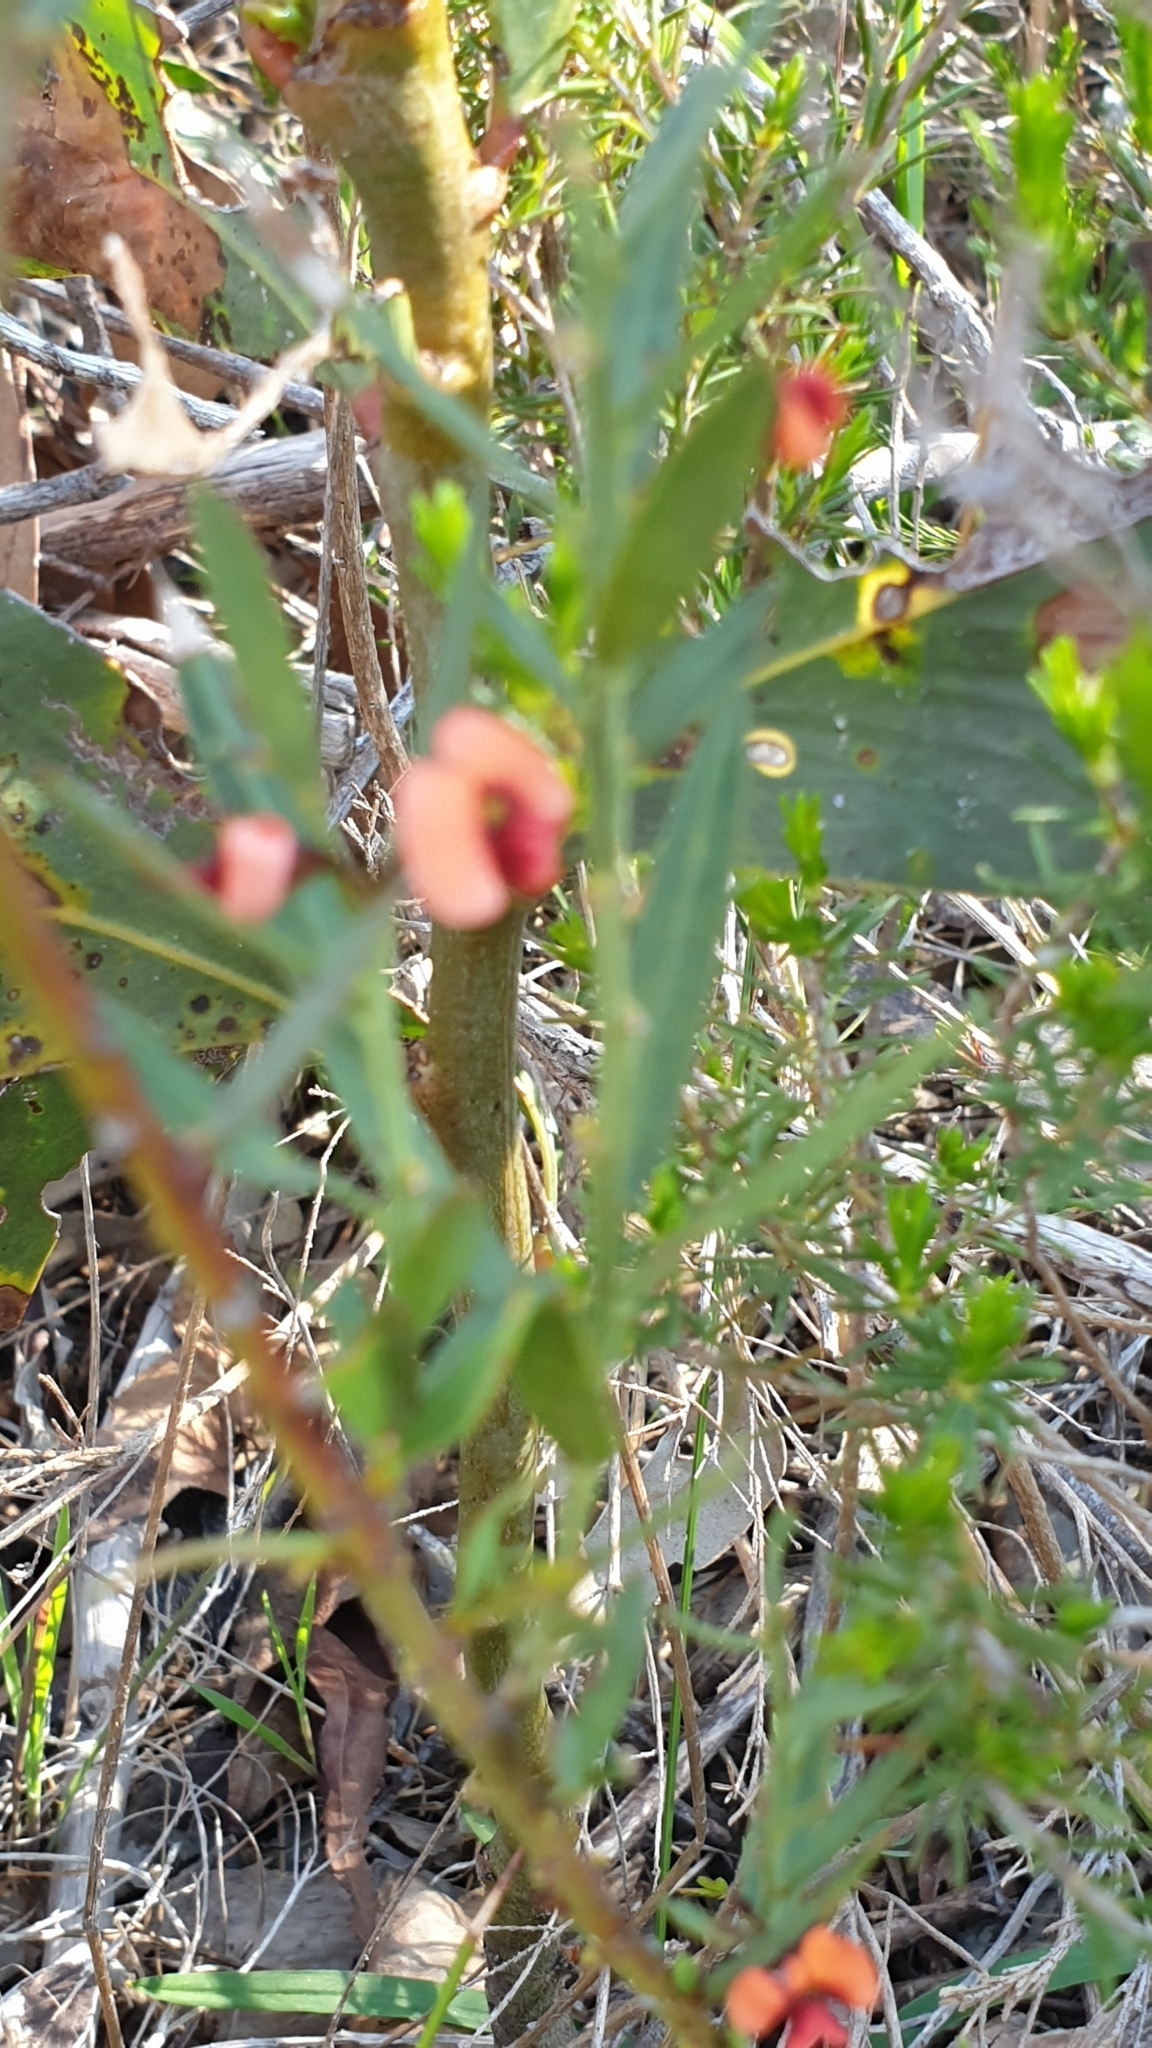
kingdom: Plantae
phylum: Tracheophyta
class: Magnoliopsida
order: Fabales
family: Fabaceae
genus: Daviesia
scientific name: Daviesia ulicifolia
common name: Gorse bitter-pea
